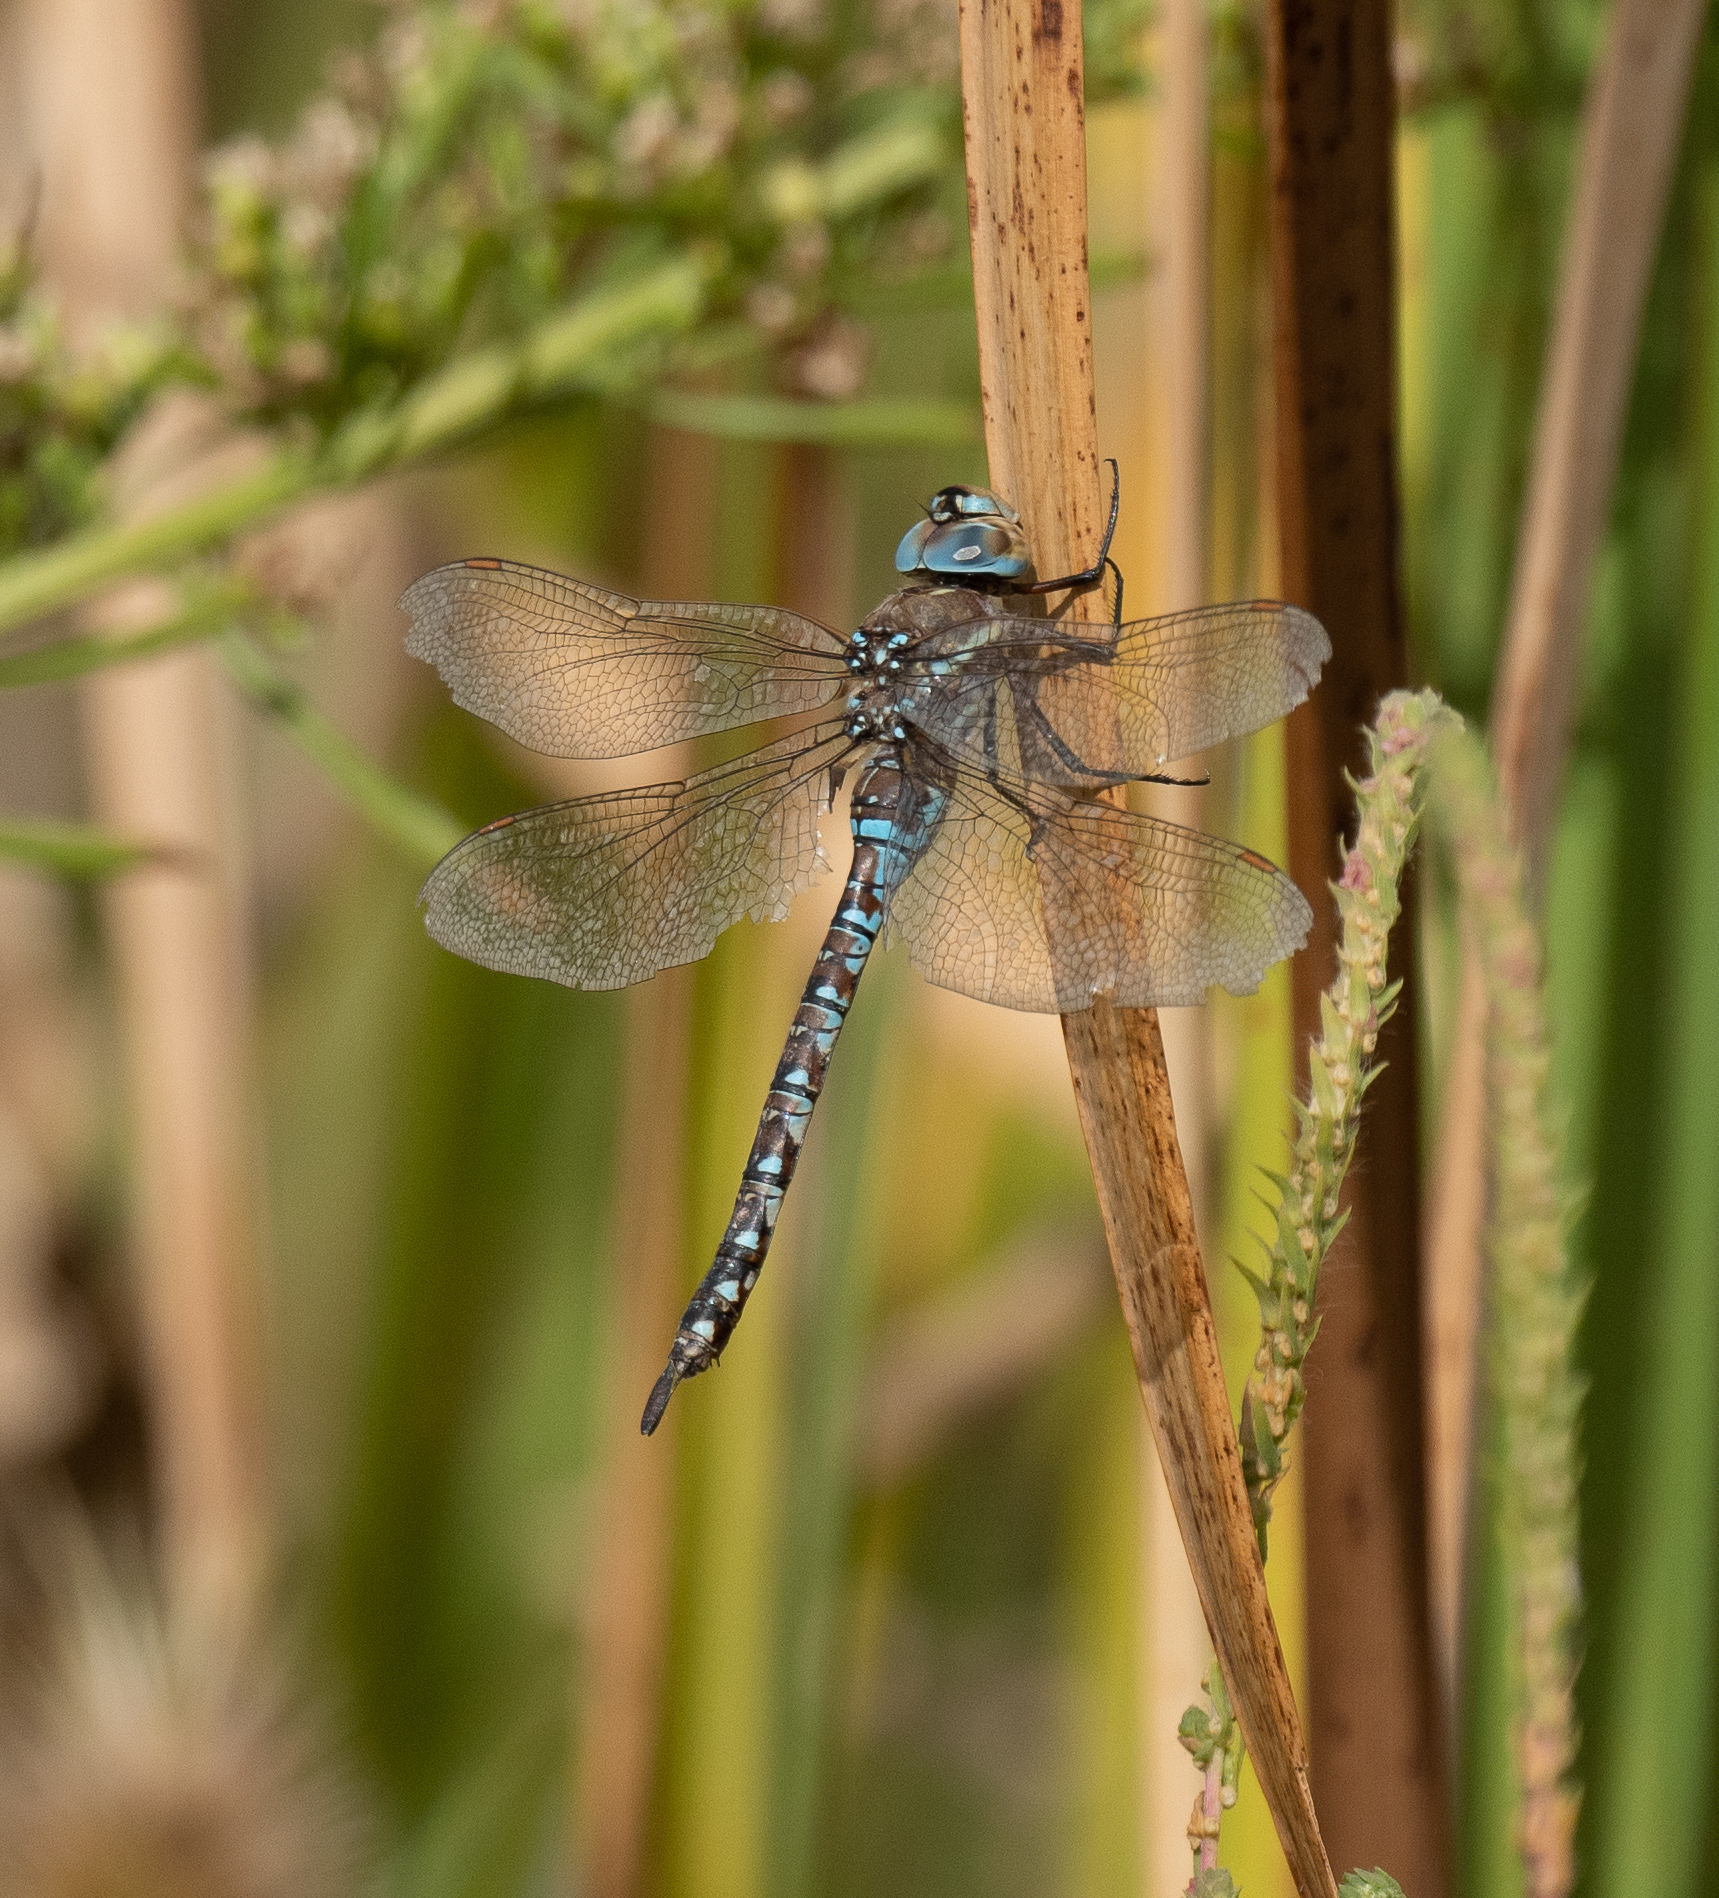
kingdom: Animalia
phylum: Arthropoda
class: Insecta
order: Odonata
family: Aeshnidae
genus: Rhionaeschna
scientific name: Rhionaeschna multicolor
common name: Blue-eyed darner
